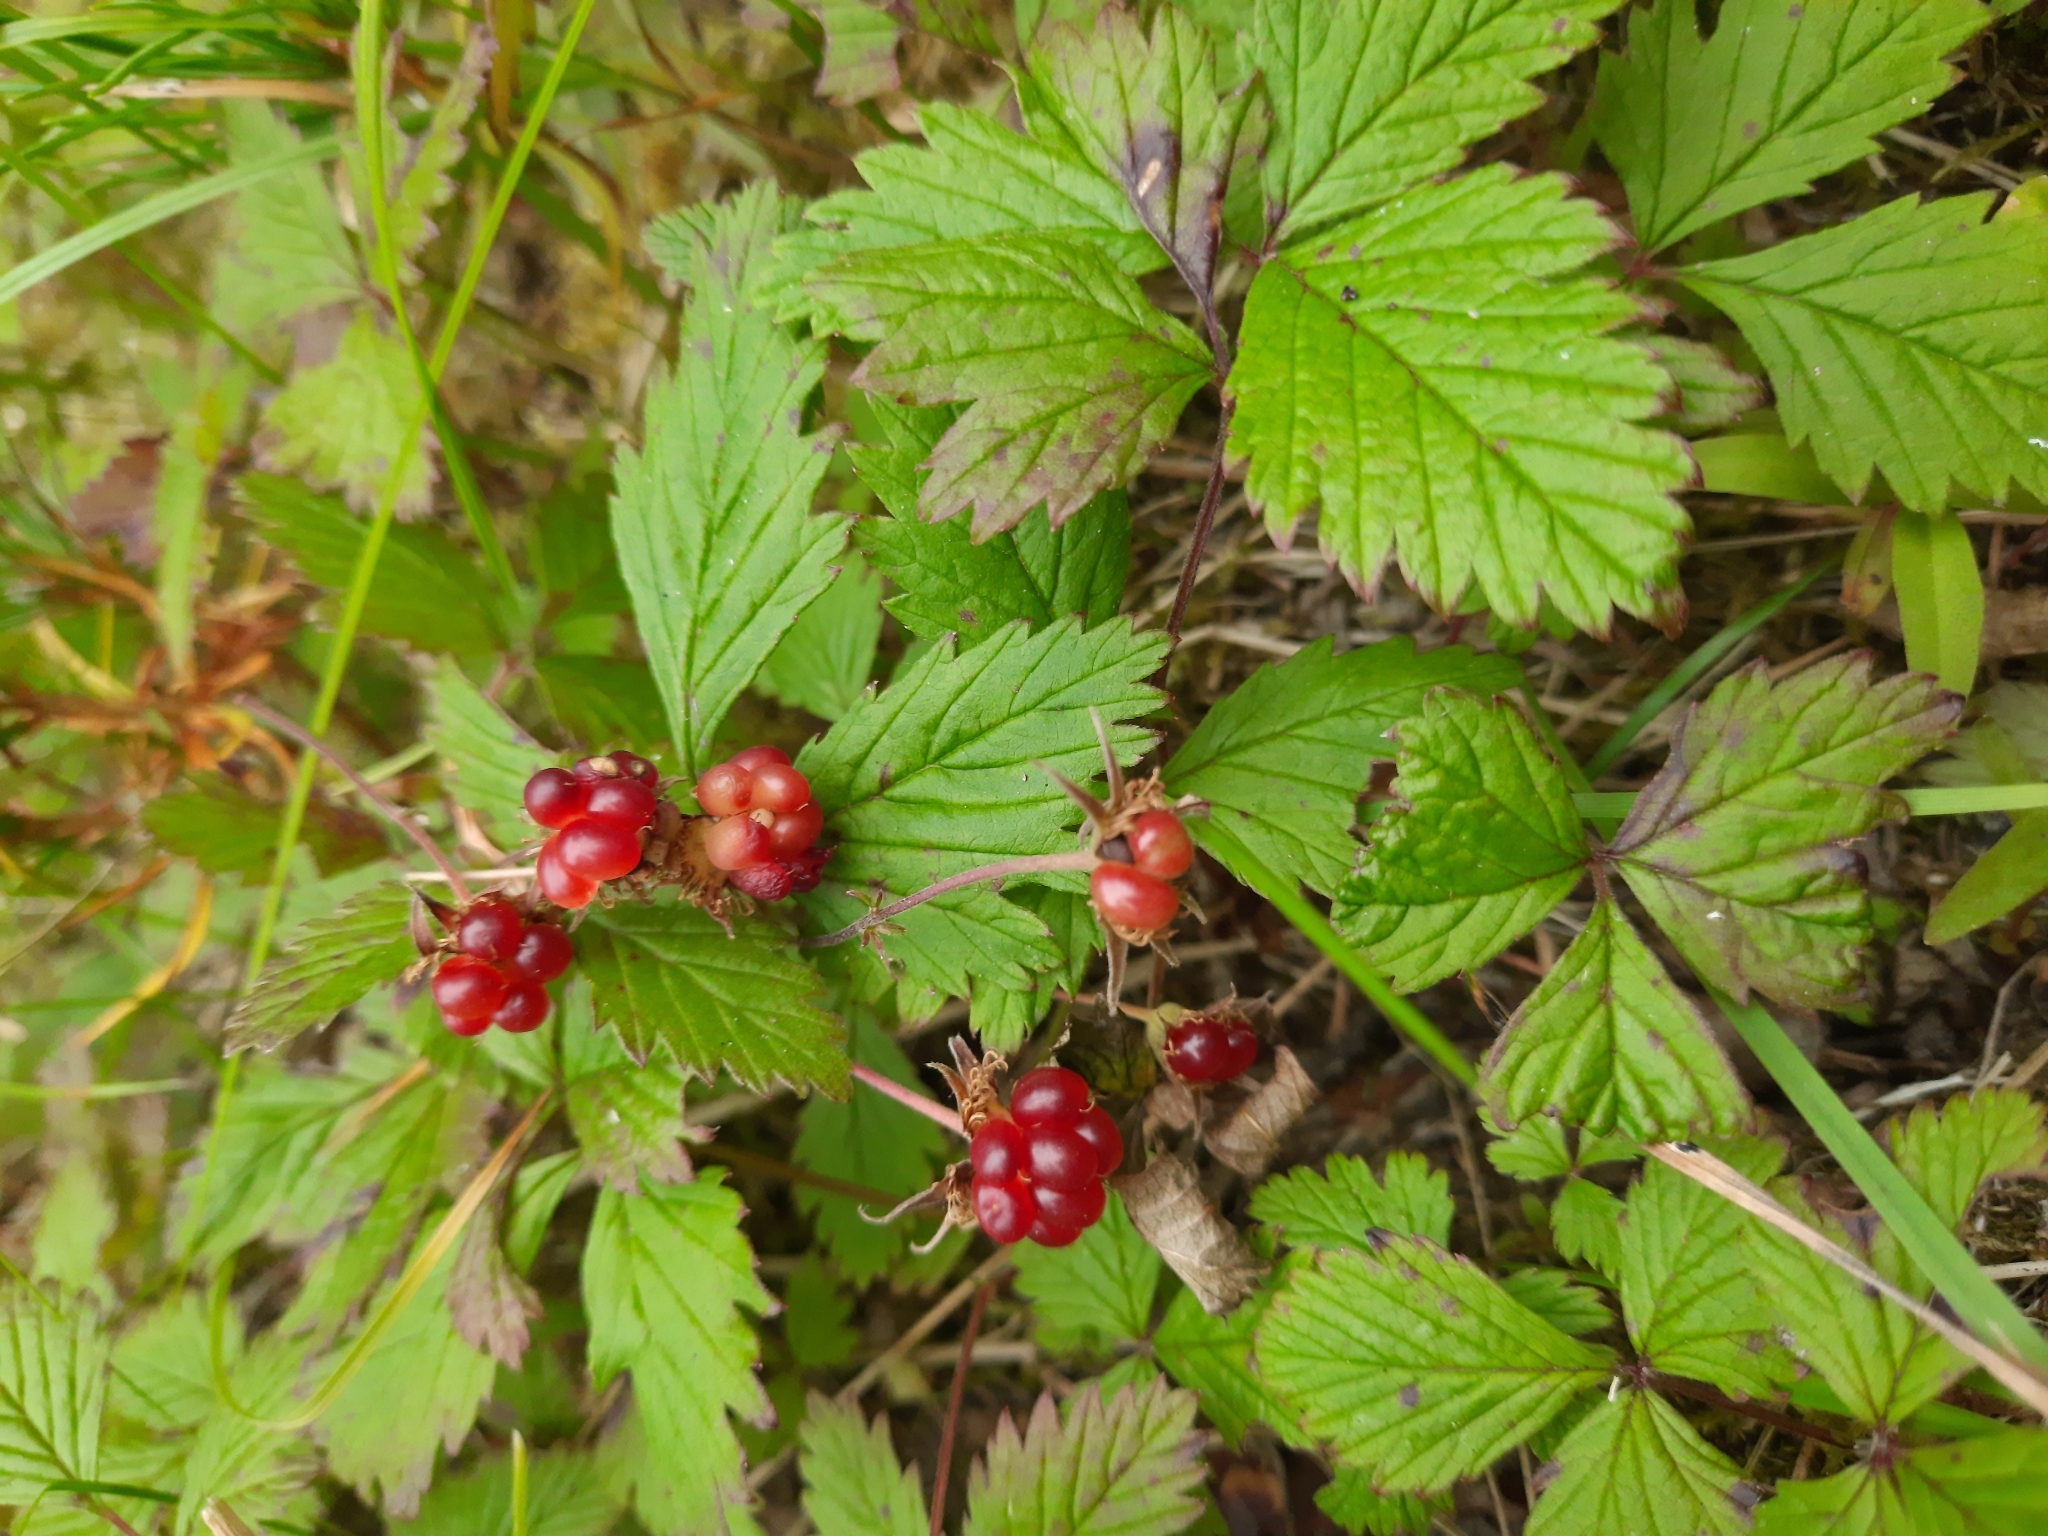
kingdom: Plantae
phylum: Tracheophyta
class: Magnoliopsida
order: Rosales
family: Rosaceae
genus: Rubus
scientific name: Rubus arcticus
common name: Arctic bramble
